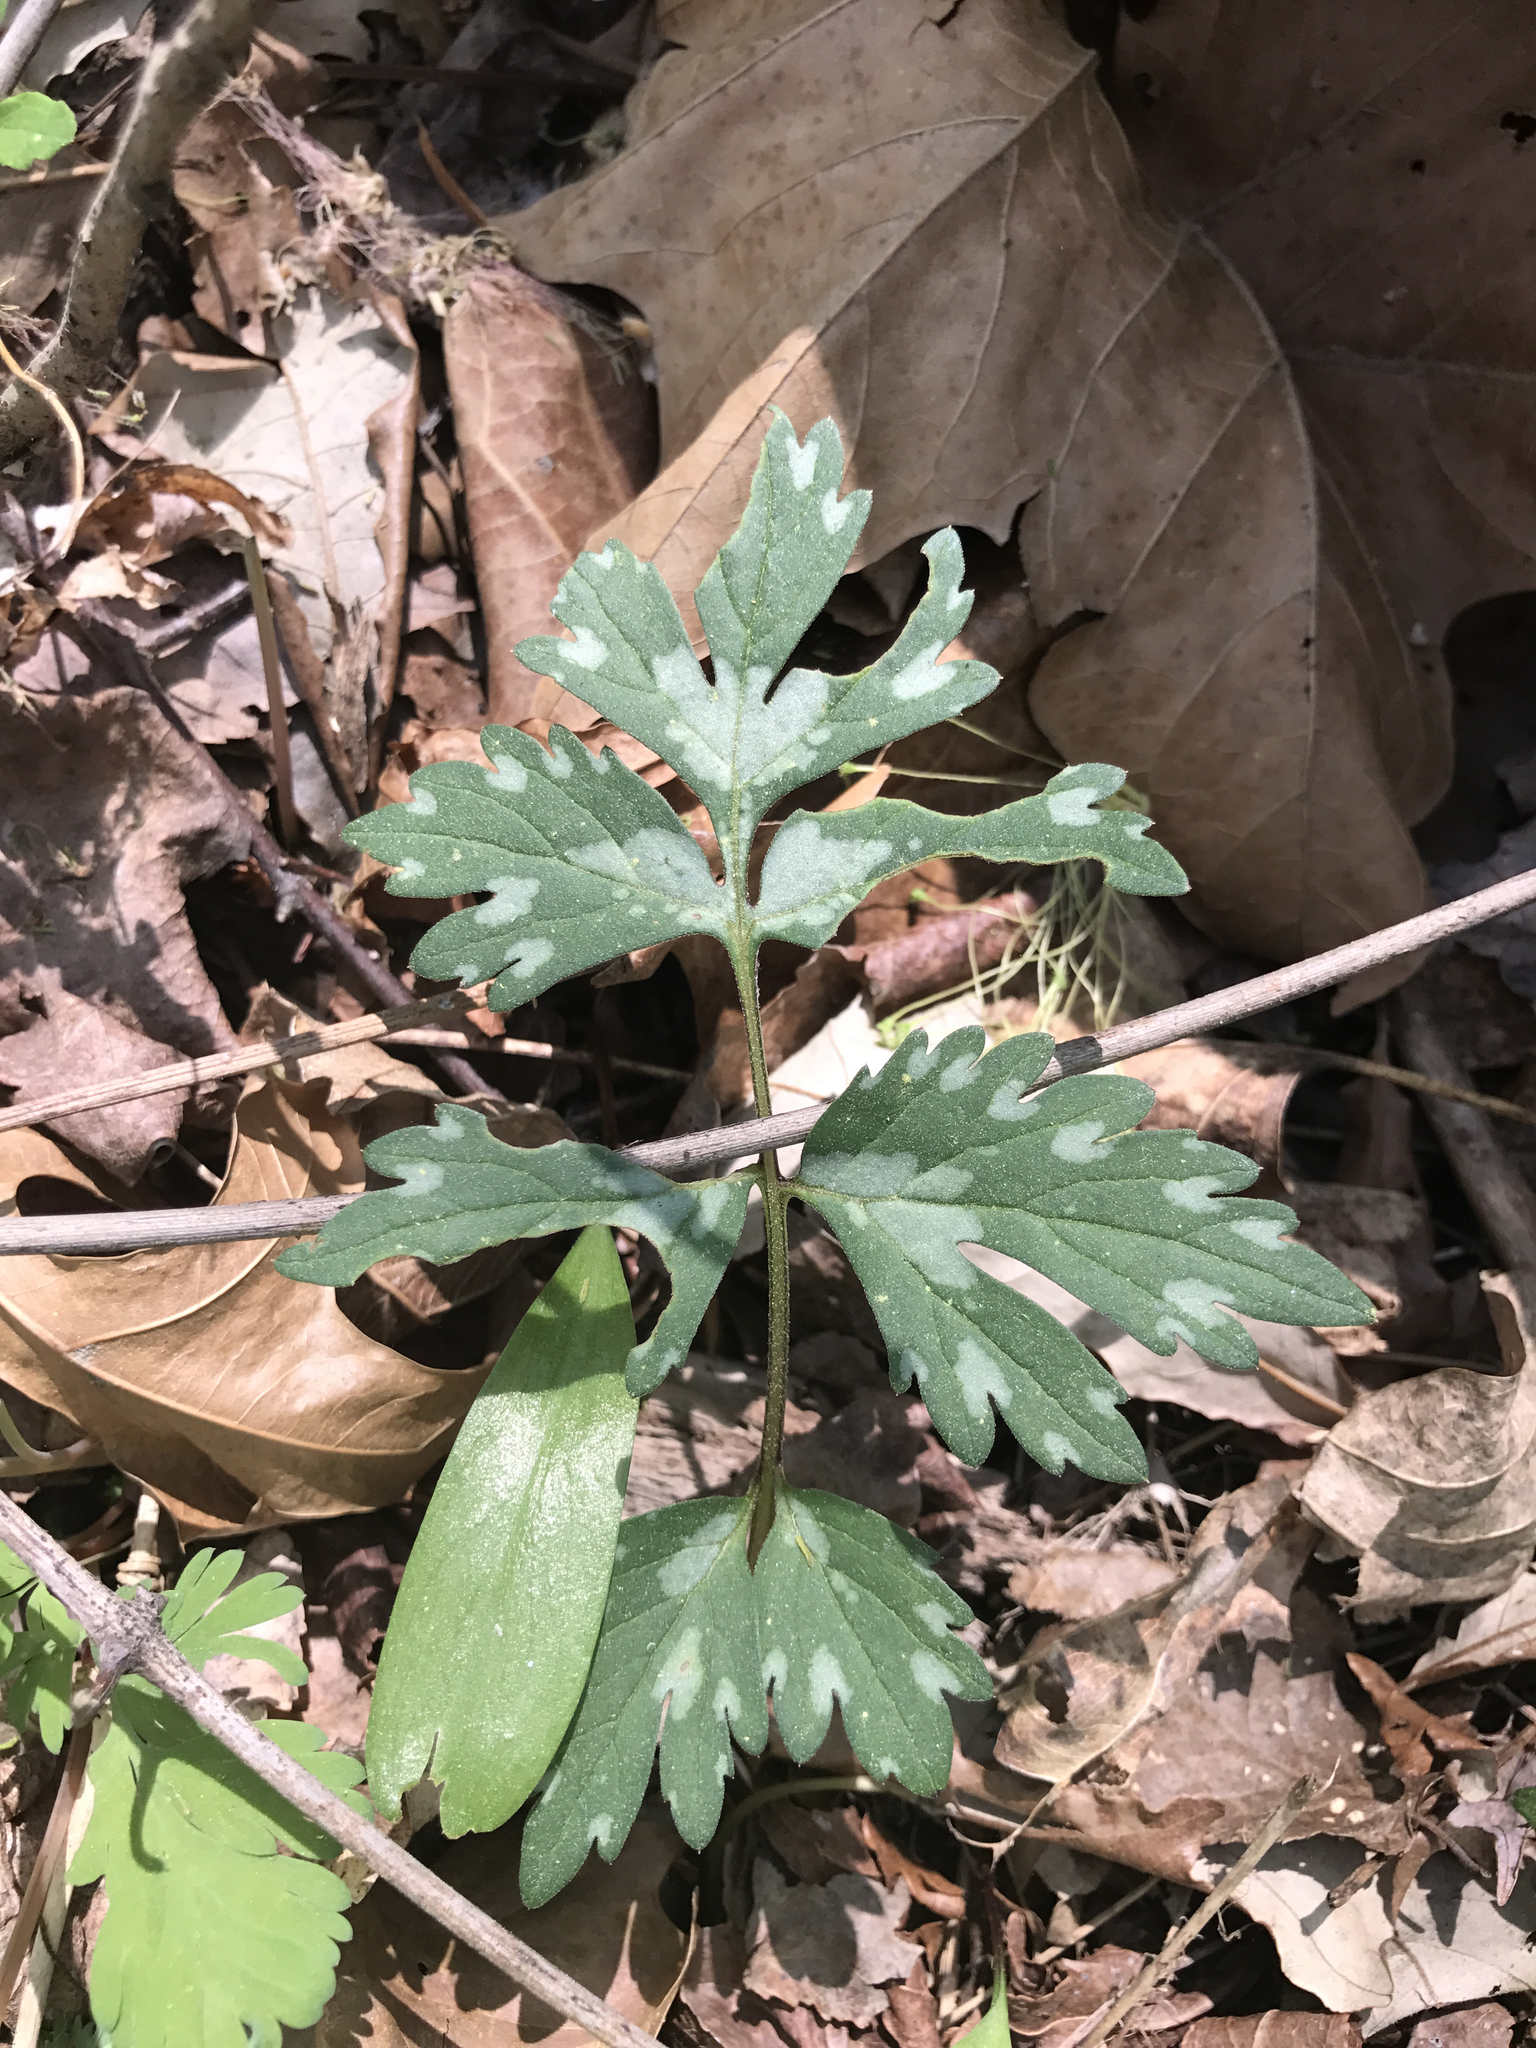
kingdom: Plantae
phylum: Tracheophyta
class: Magnoliopsida
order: Boraginales
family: Hydrophyllaceae
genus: Hydrophyllum
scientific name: Hydrophyllum virginianum
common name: Virginia waterleaf
